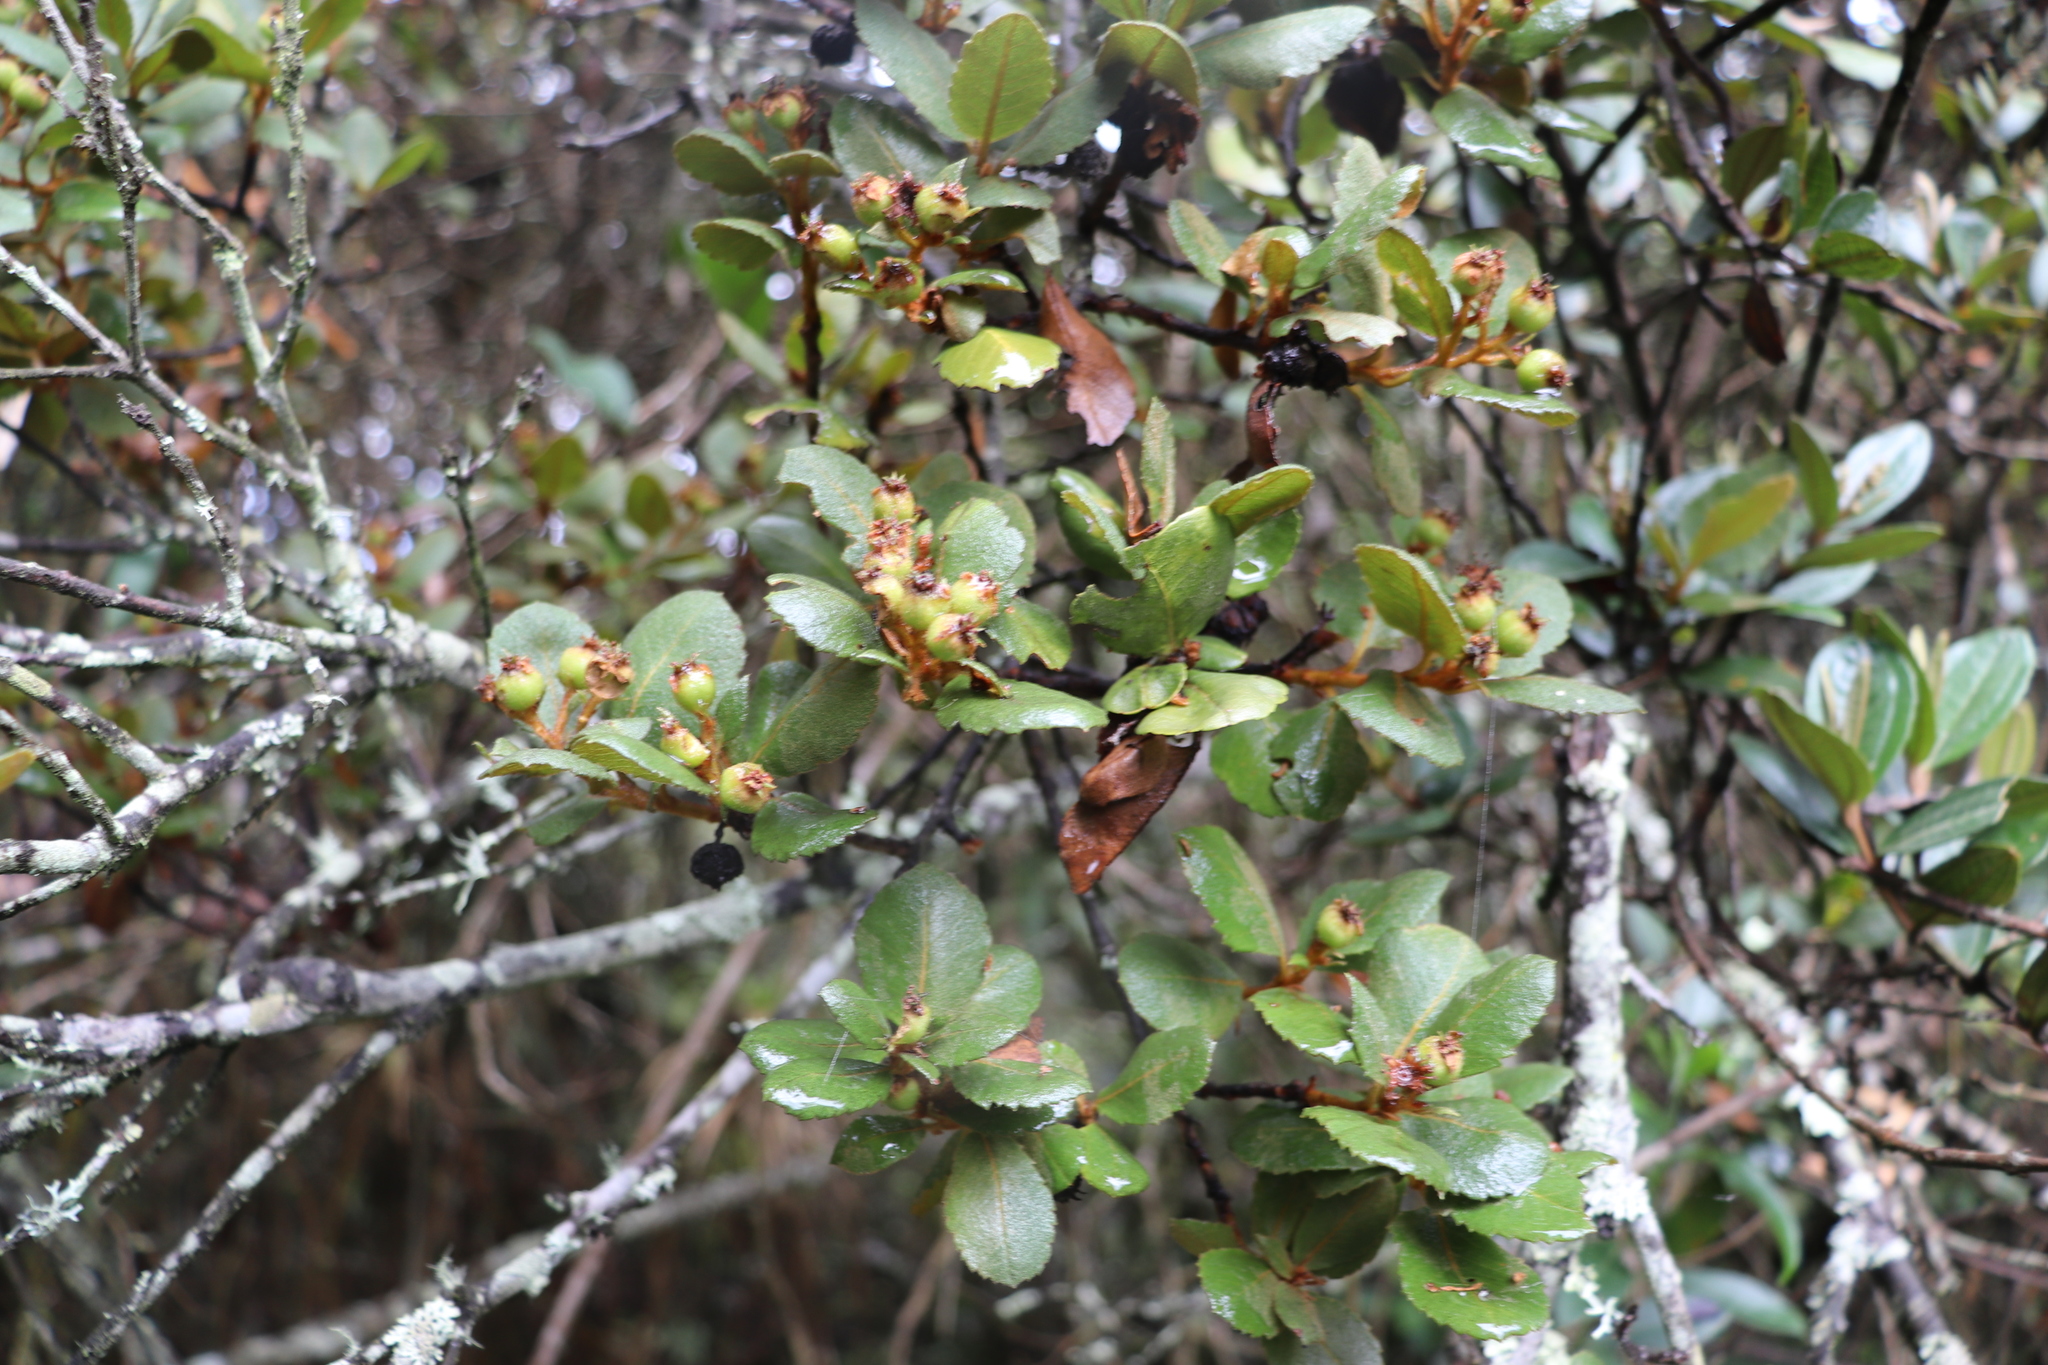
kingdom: Plantae
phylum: Tracheophyta
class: Magnoliopsida
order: Rosales
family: Rosaceae
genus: Hesperomeles
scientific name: Hesperomeles obtusifolia
